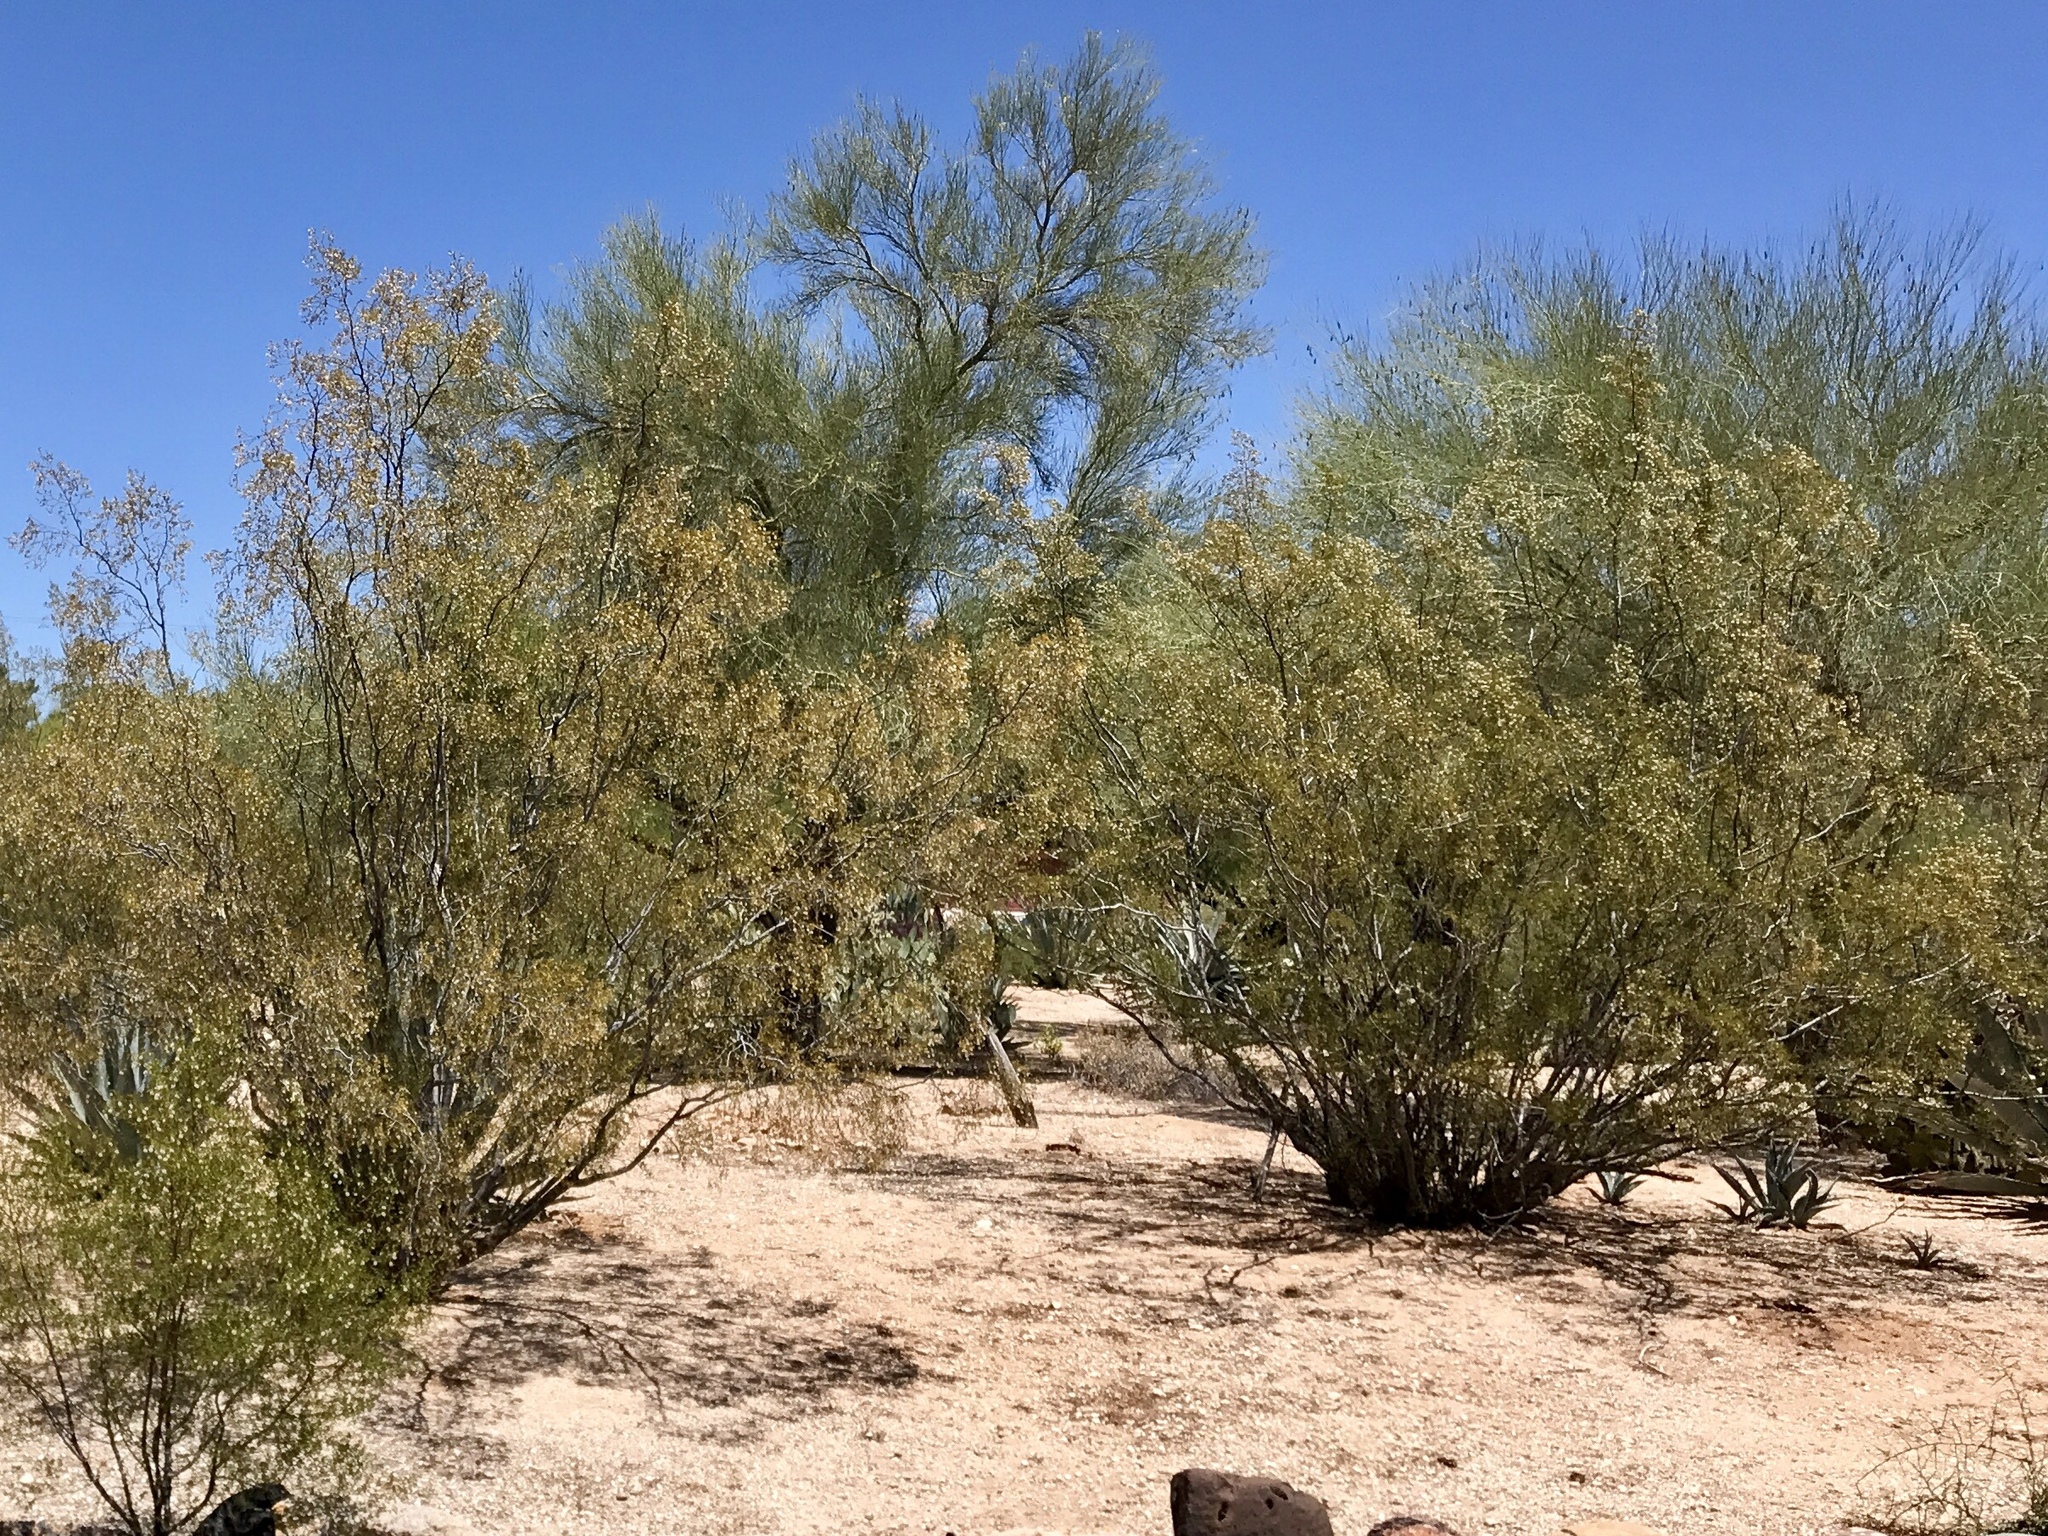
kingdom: Plantae
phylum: Tracheophyta
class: Magnoliopsida
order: Zygophyllales
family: Zygophyllaceae
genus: Larrea
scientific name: Larrea tridentata
